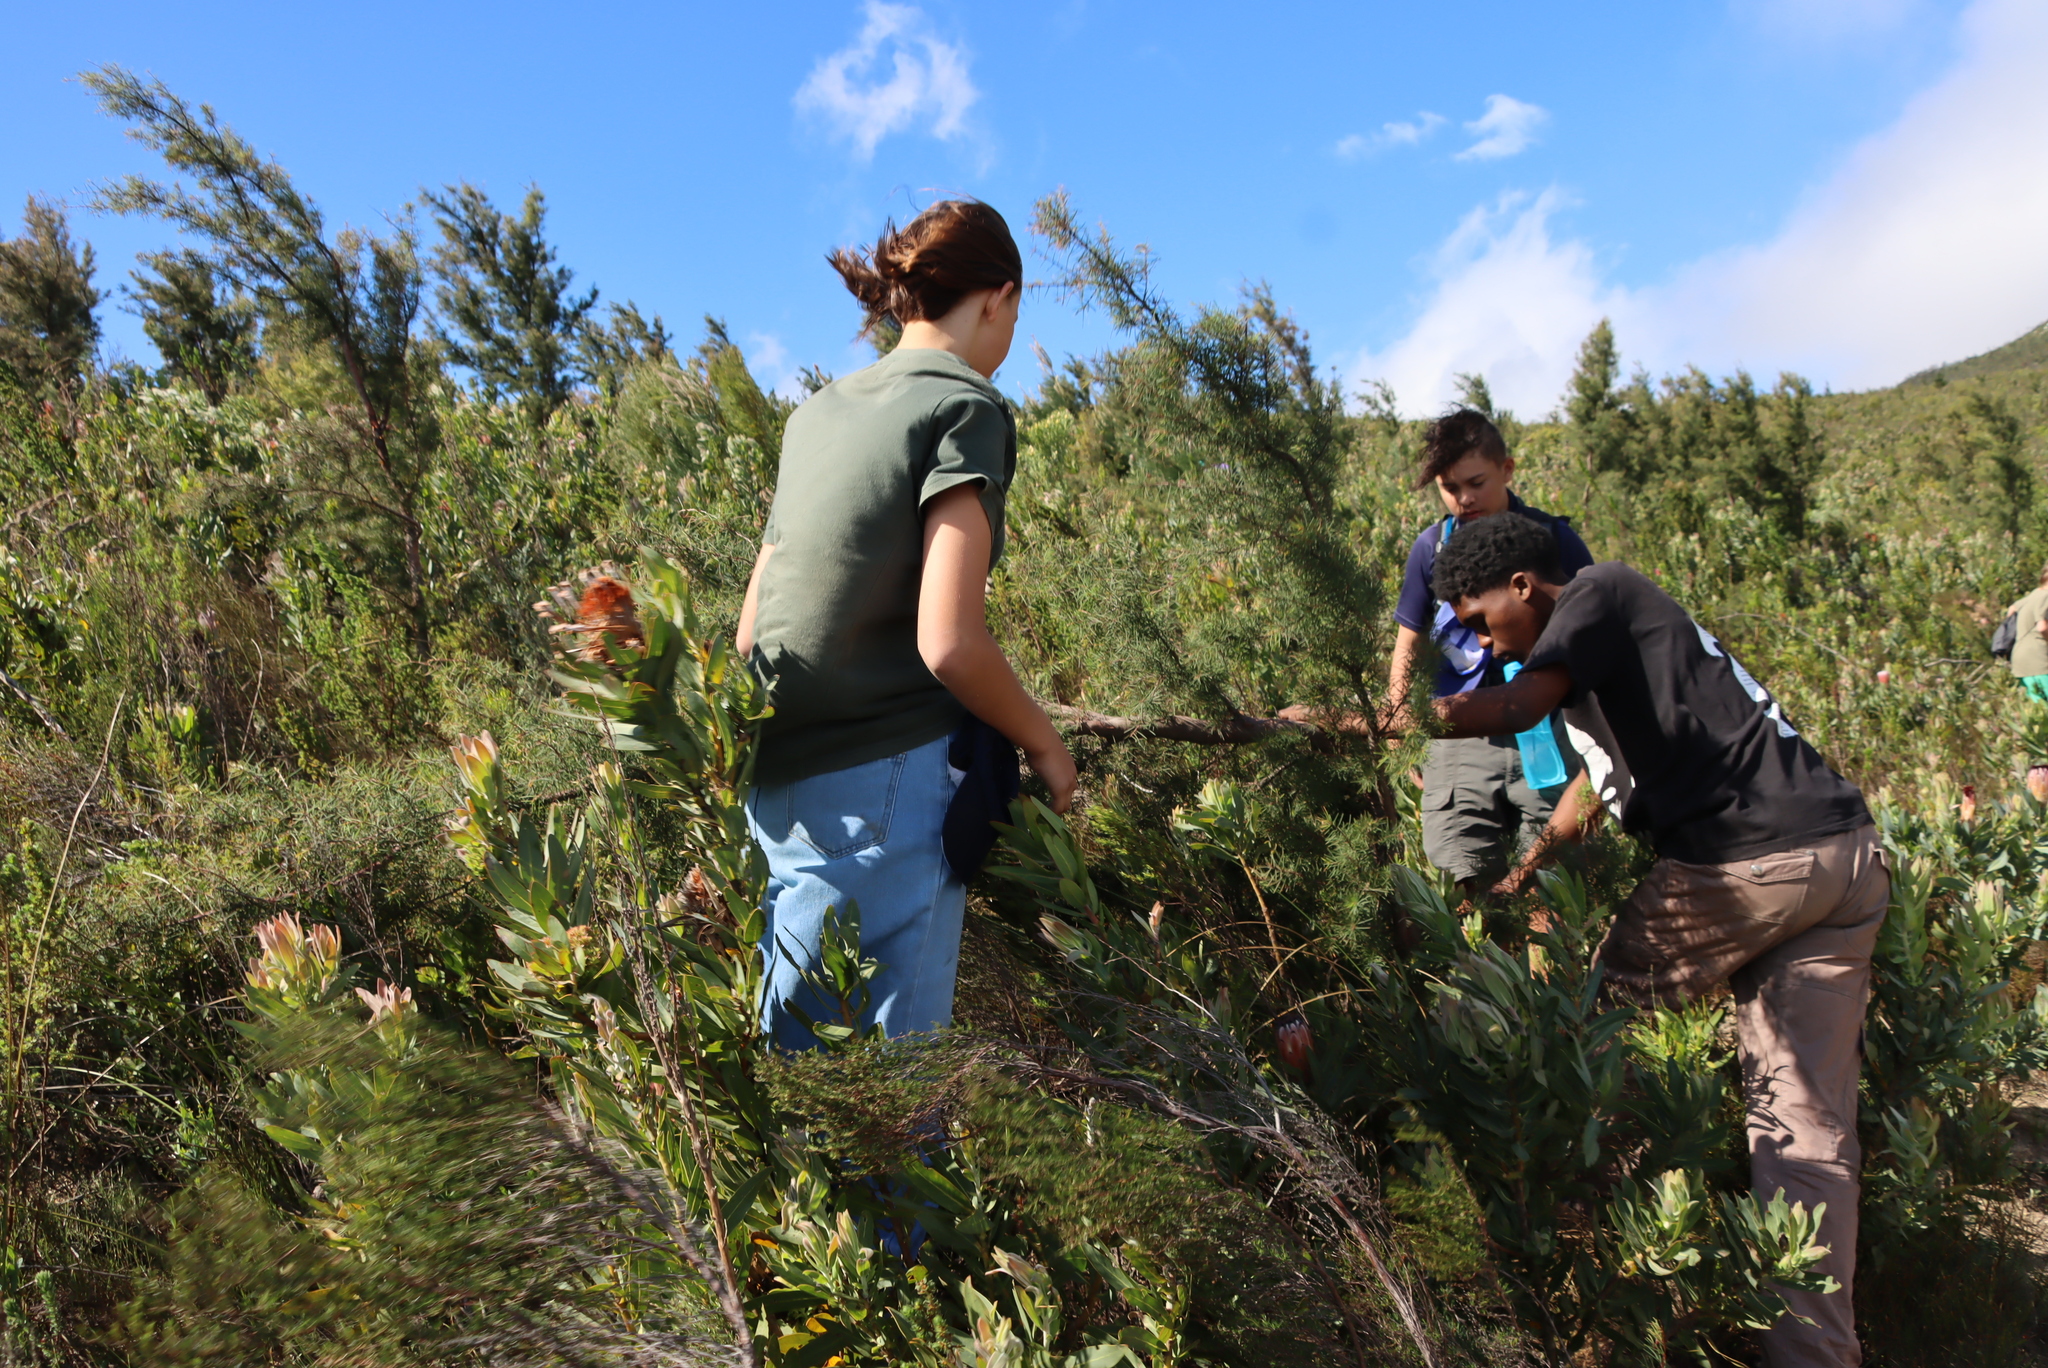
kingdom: Plantae
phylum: Tracheophyta
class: Magnoliopsida
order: Proteales
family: Proteaceae
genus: Hakea
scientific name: Hakea sericea
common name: Needle bush
